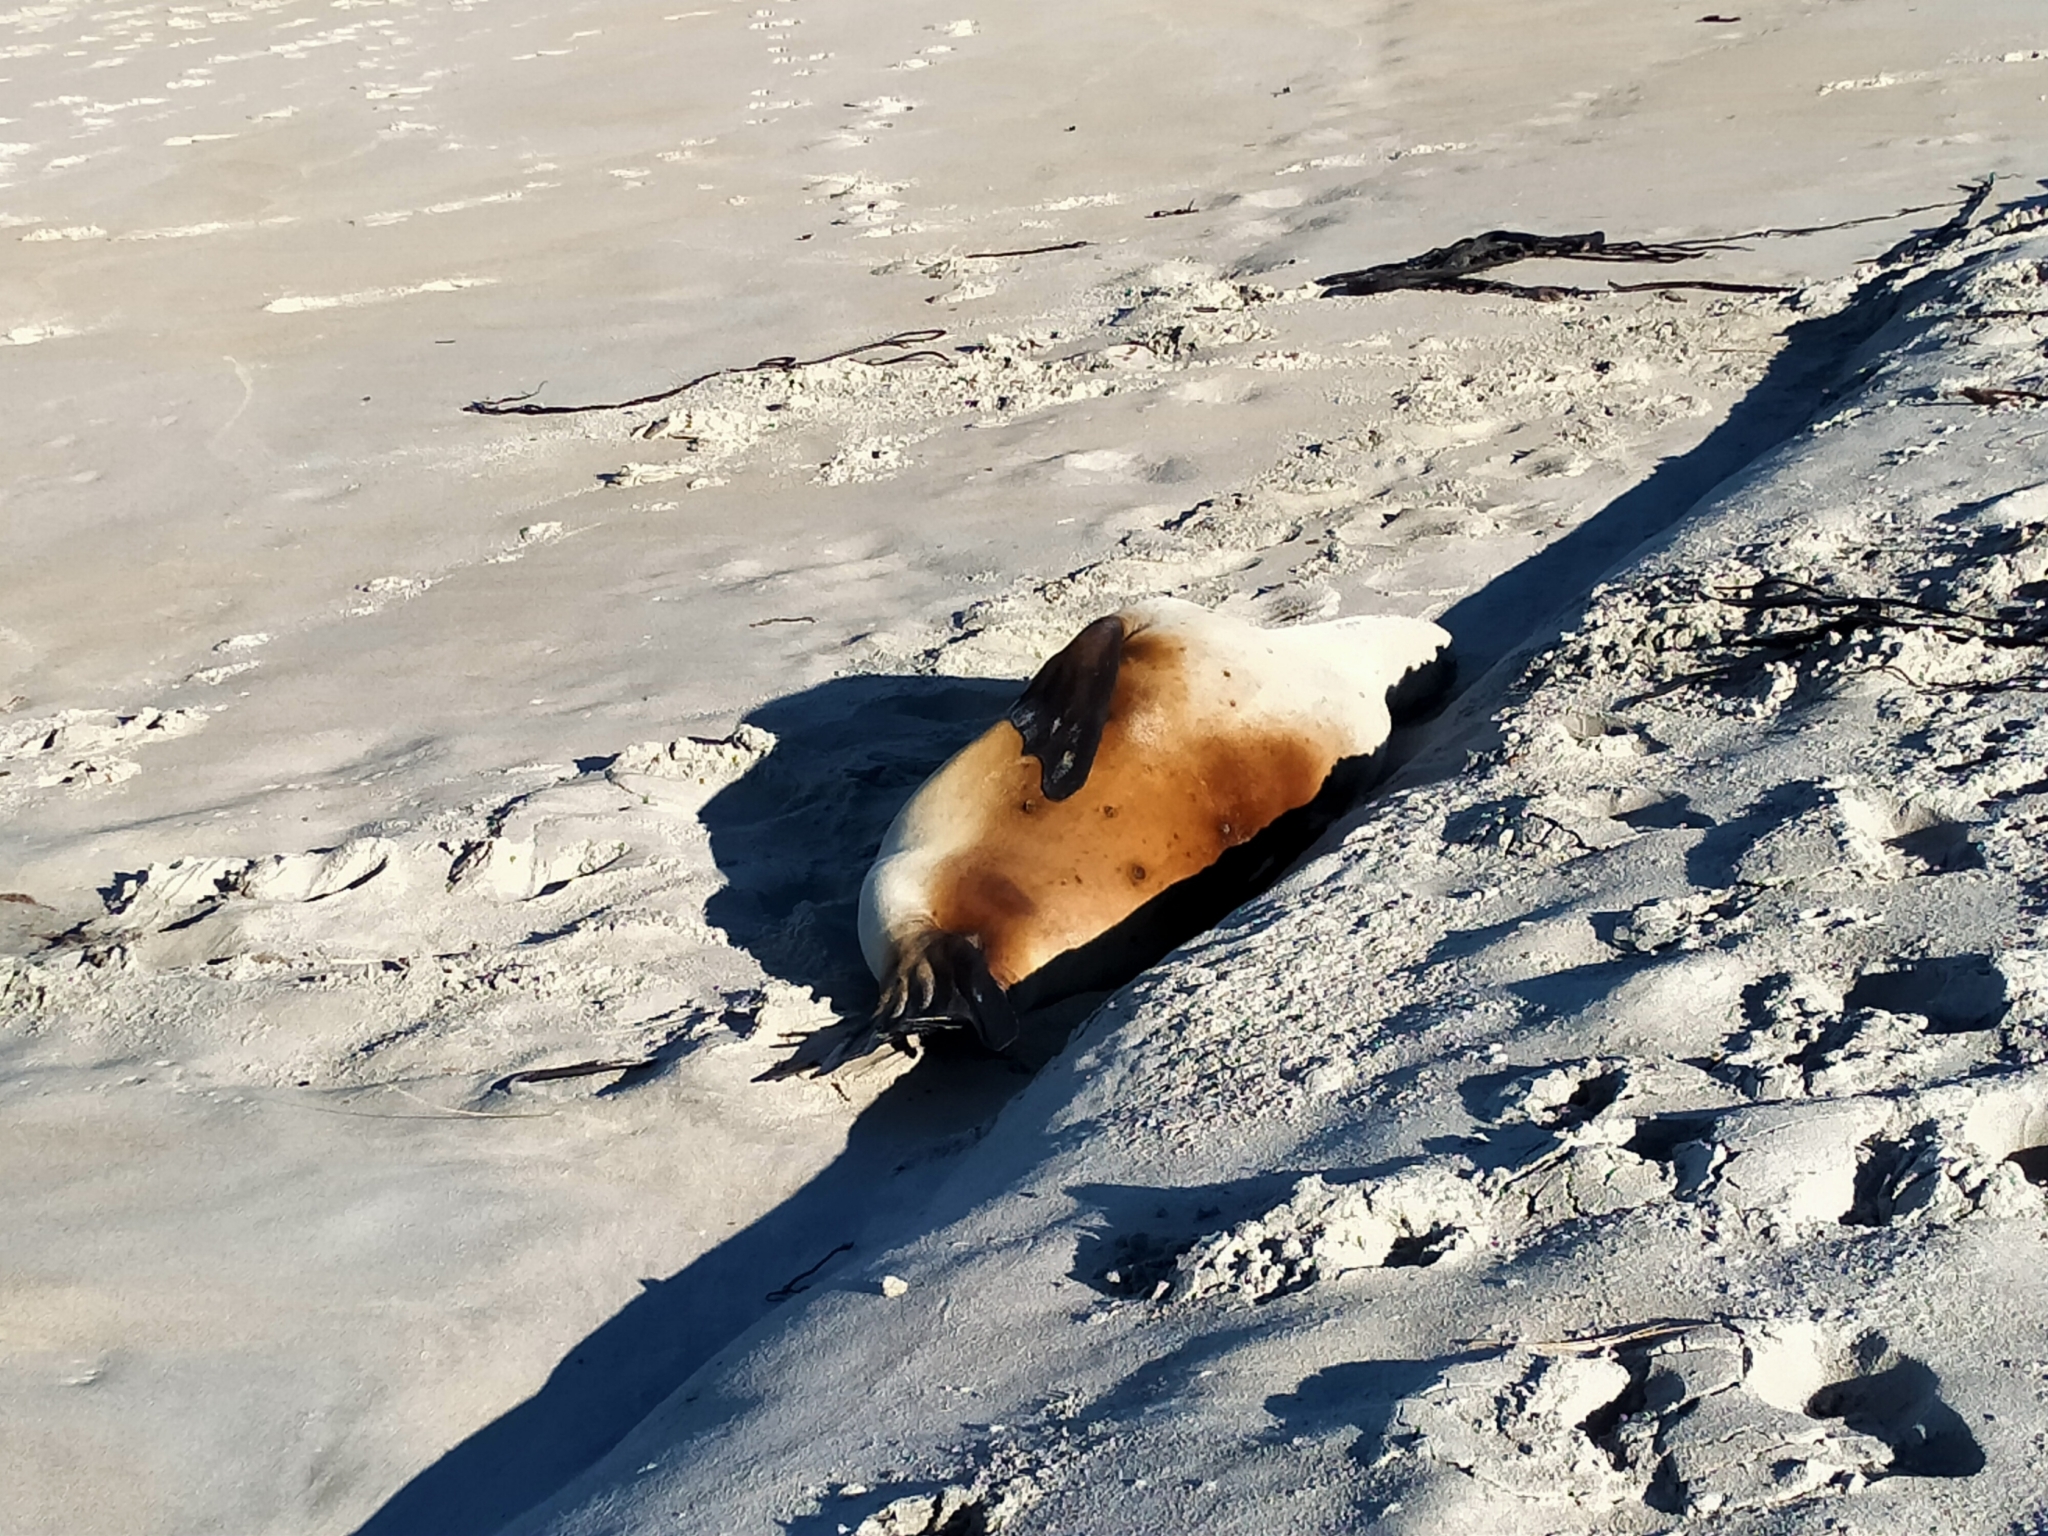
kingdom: Animalia
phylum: Chordata
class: Mammalia
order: Carnivora
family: Otariidae
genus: Phocarctos
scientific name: Phocarctos hookeri
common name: New zealand sea lion
